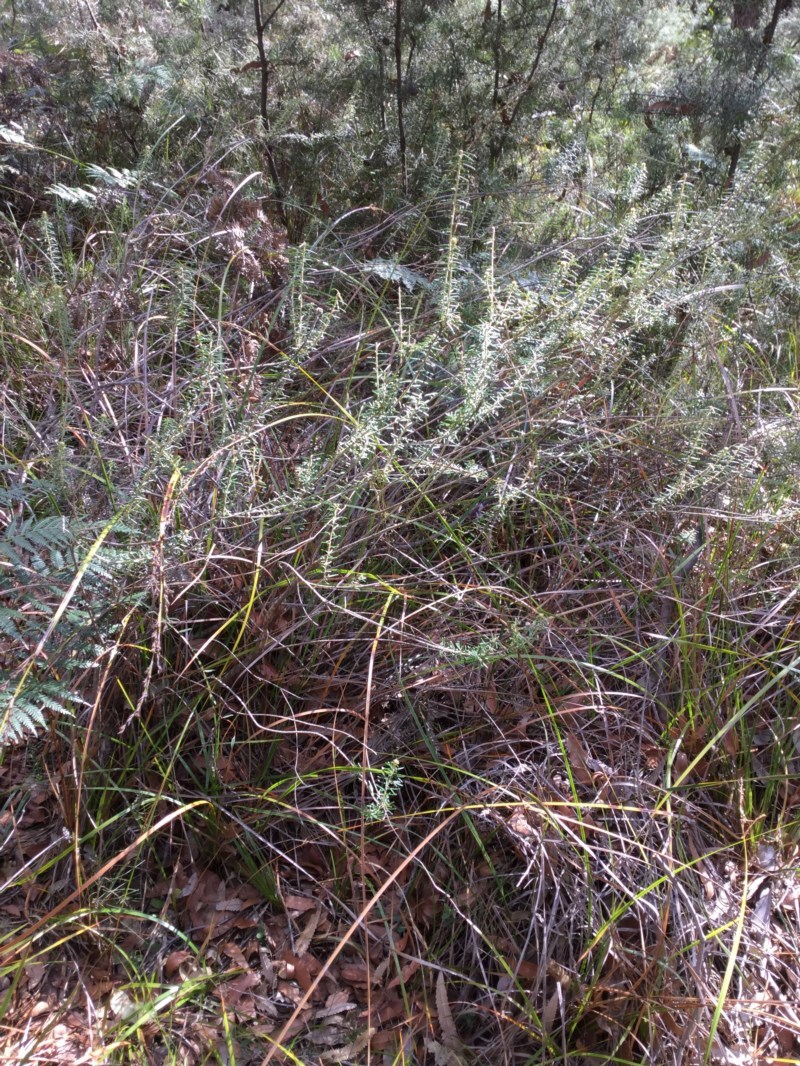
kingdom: Plantae
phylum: Tracheophyta
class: Magnoliopsida
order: Apiales
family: Araliaceae
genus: Astrotricha
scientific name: Astrotricha
